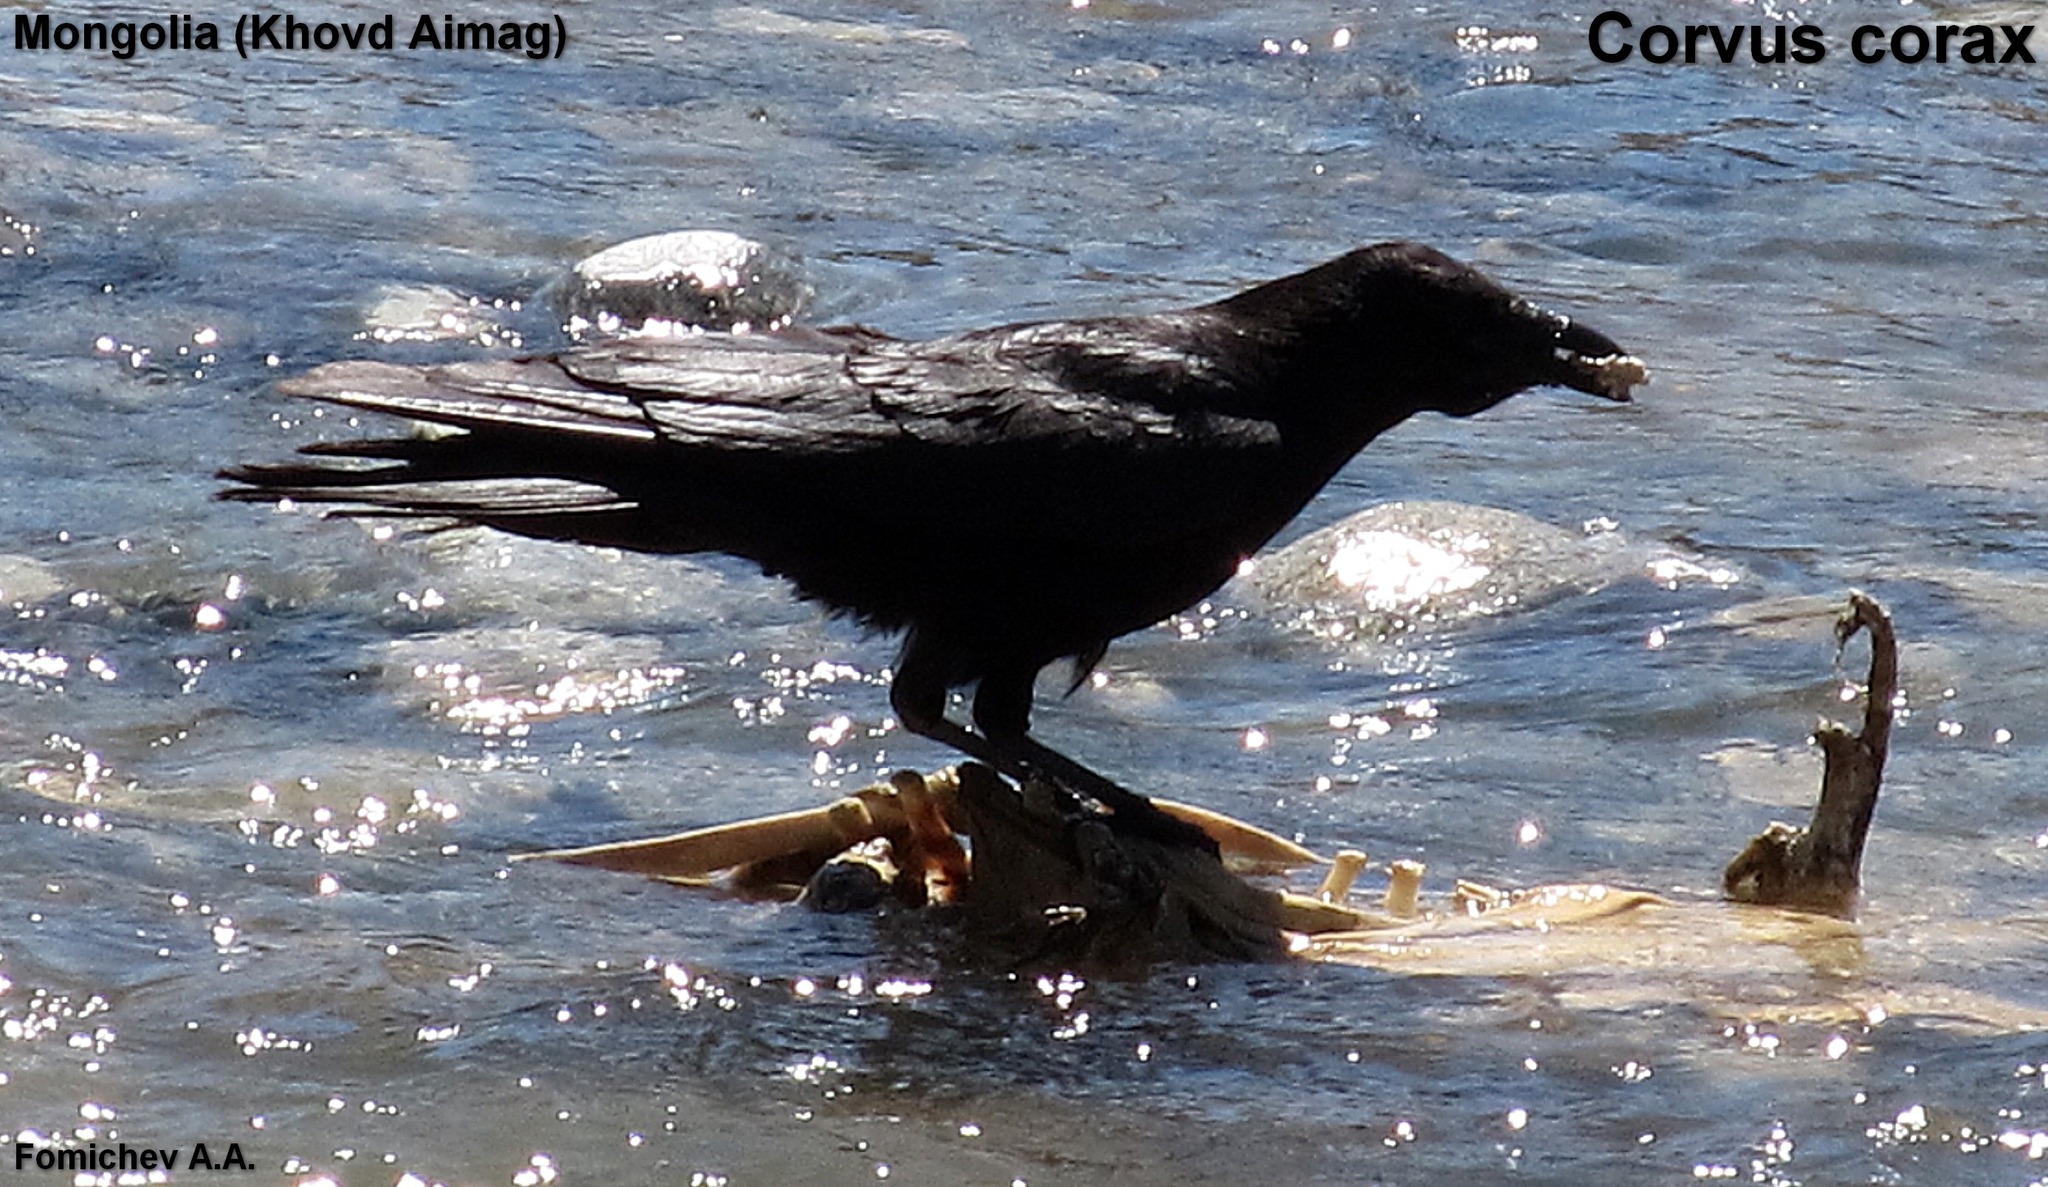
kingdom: Animalia
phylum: Chordata
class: Aves
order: Passeriformes
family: Corvidae
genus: Corvus
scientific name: Corvus corax
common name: Common raven
